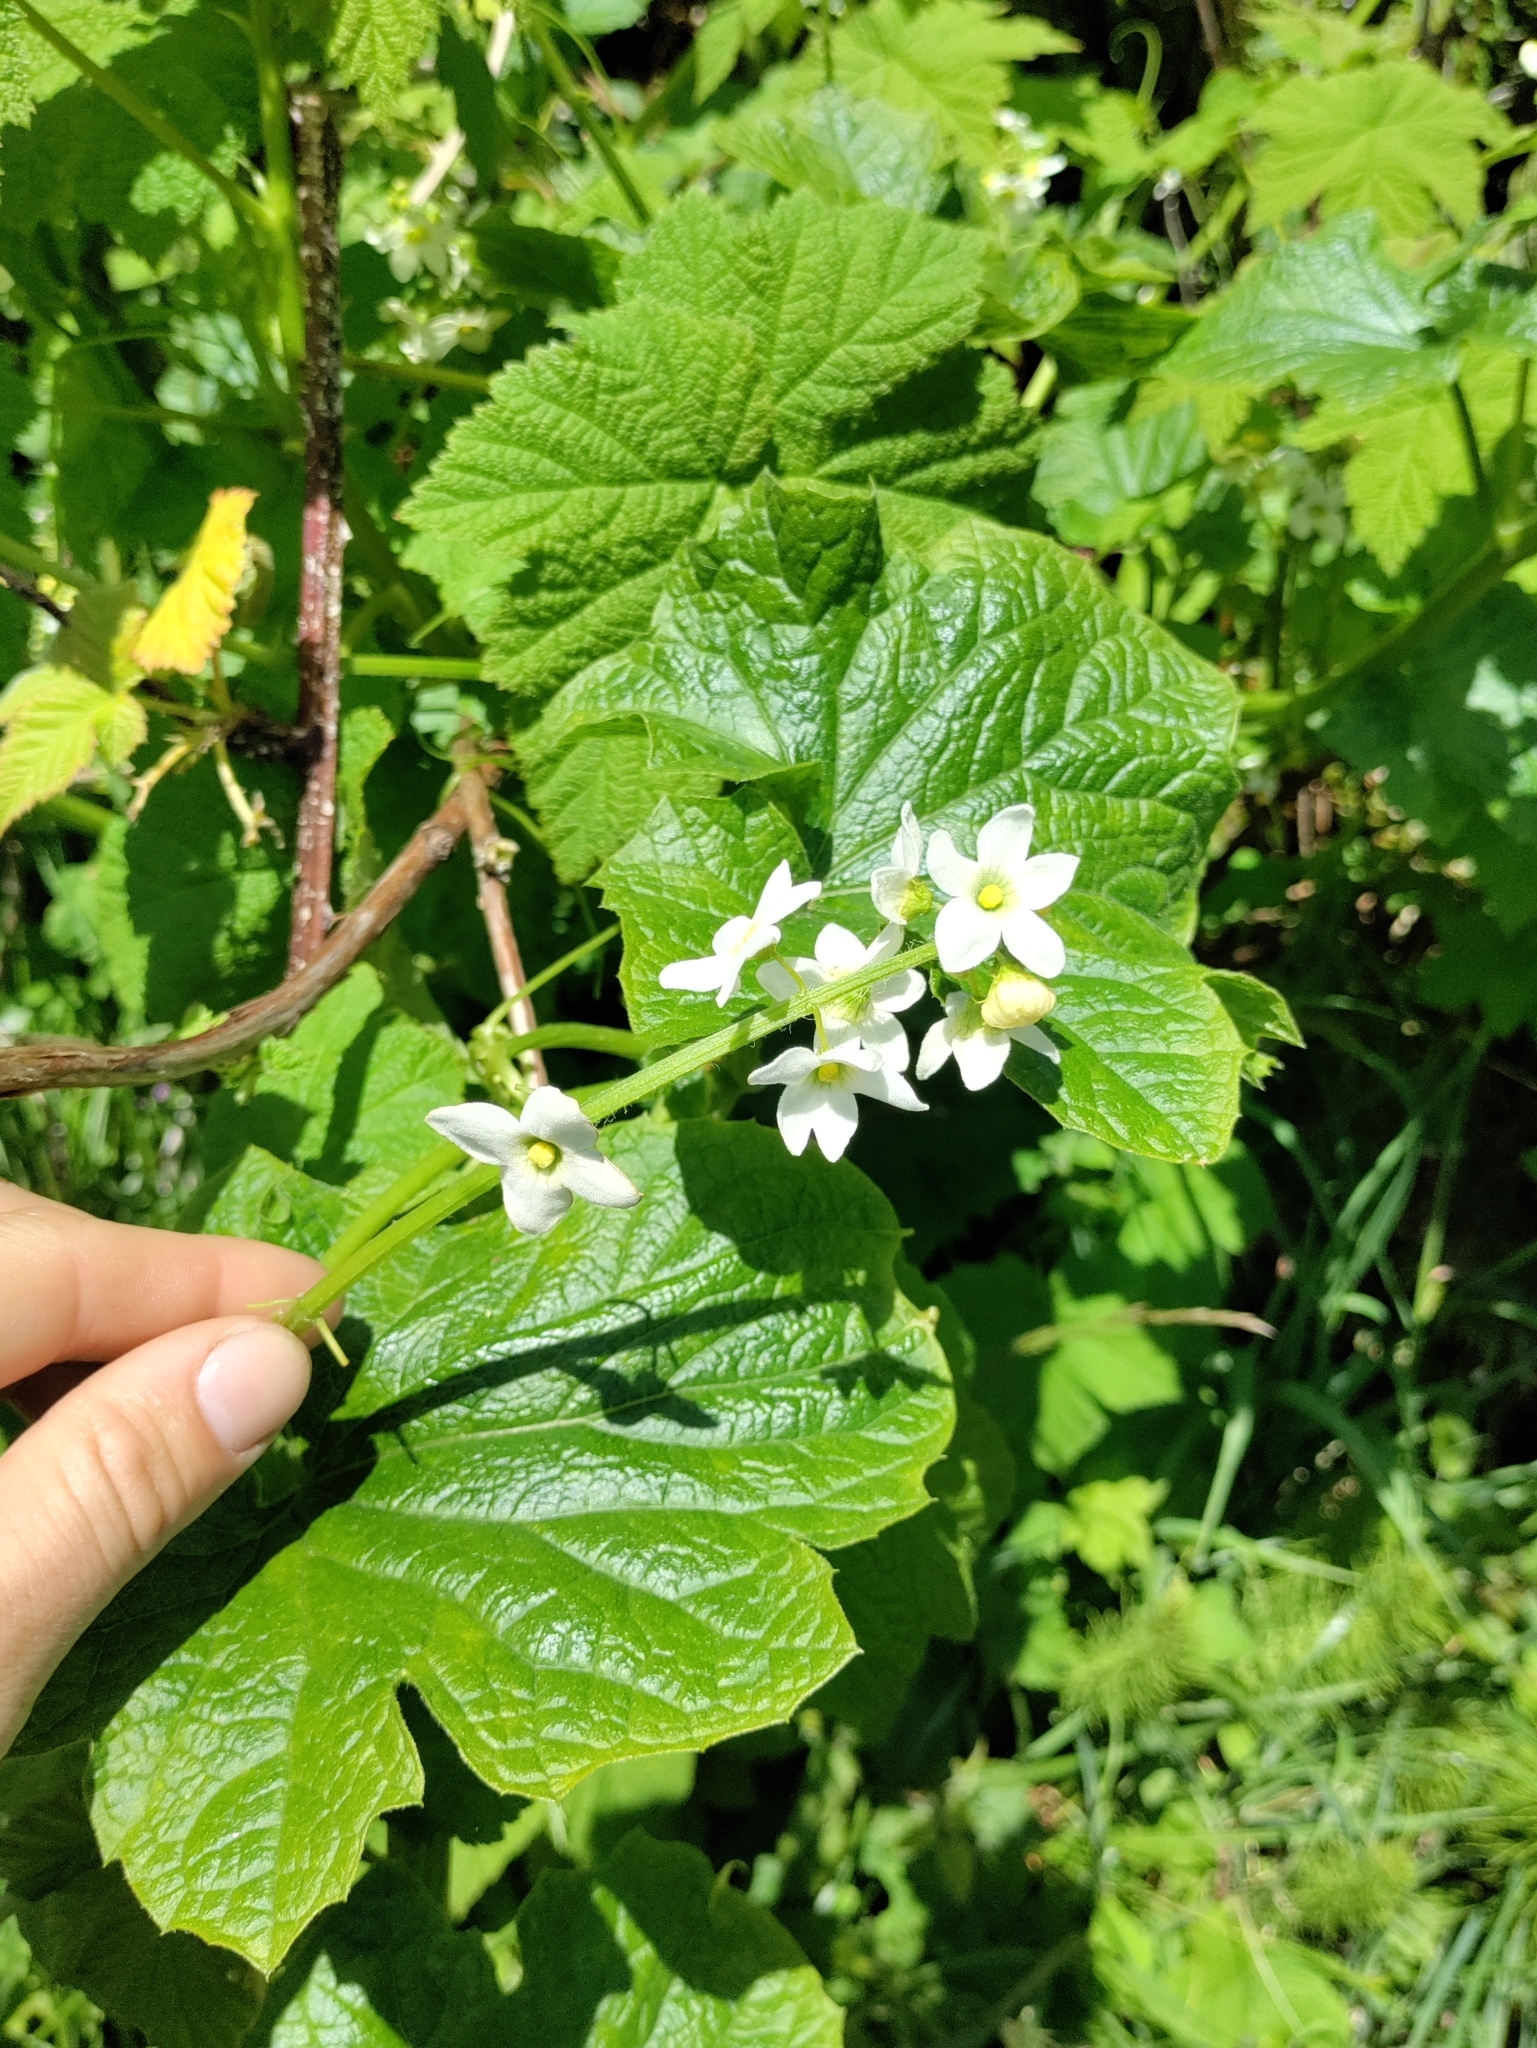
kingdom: Plantae
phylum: Tracheophyta
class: Magnoliopsida
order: Cucurbitales
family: Cucurbitaceae
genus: Marah
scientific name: Marah oregana
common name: Coastal manroot
